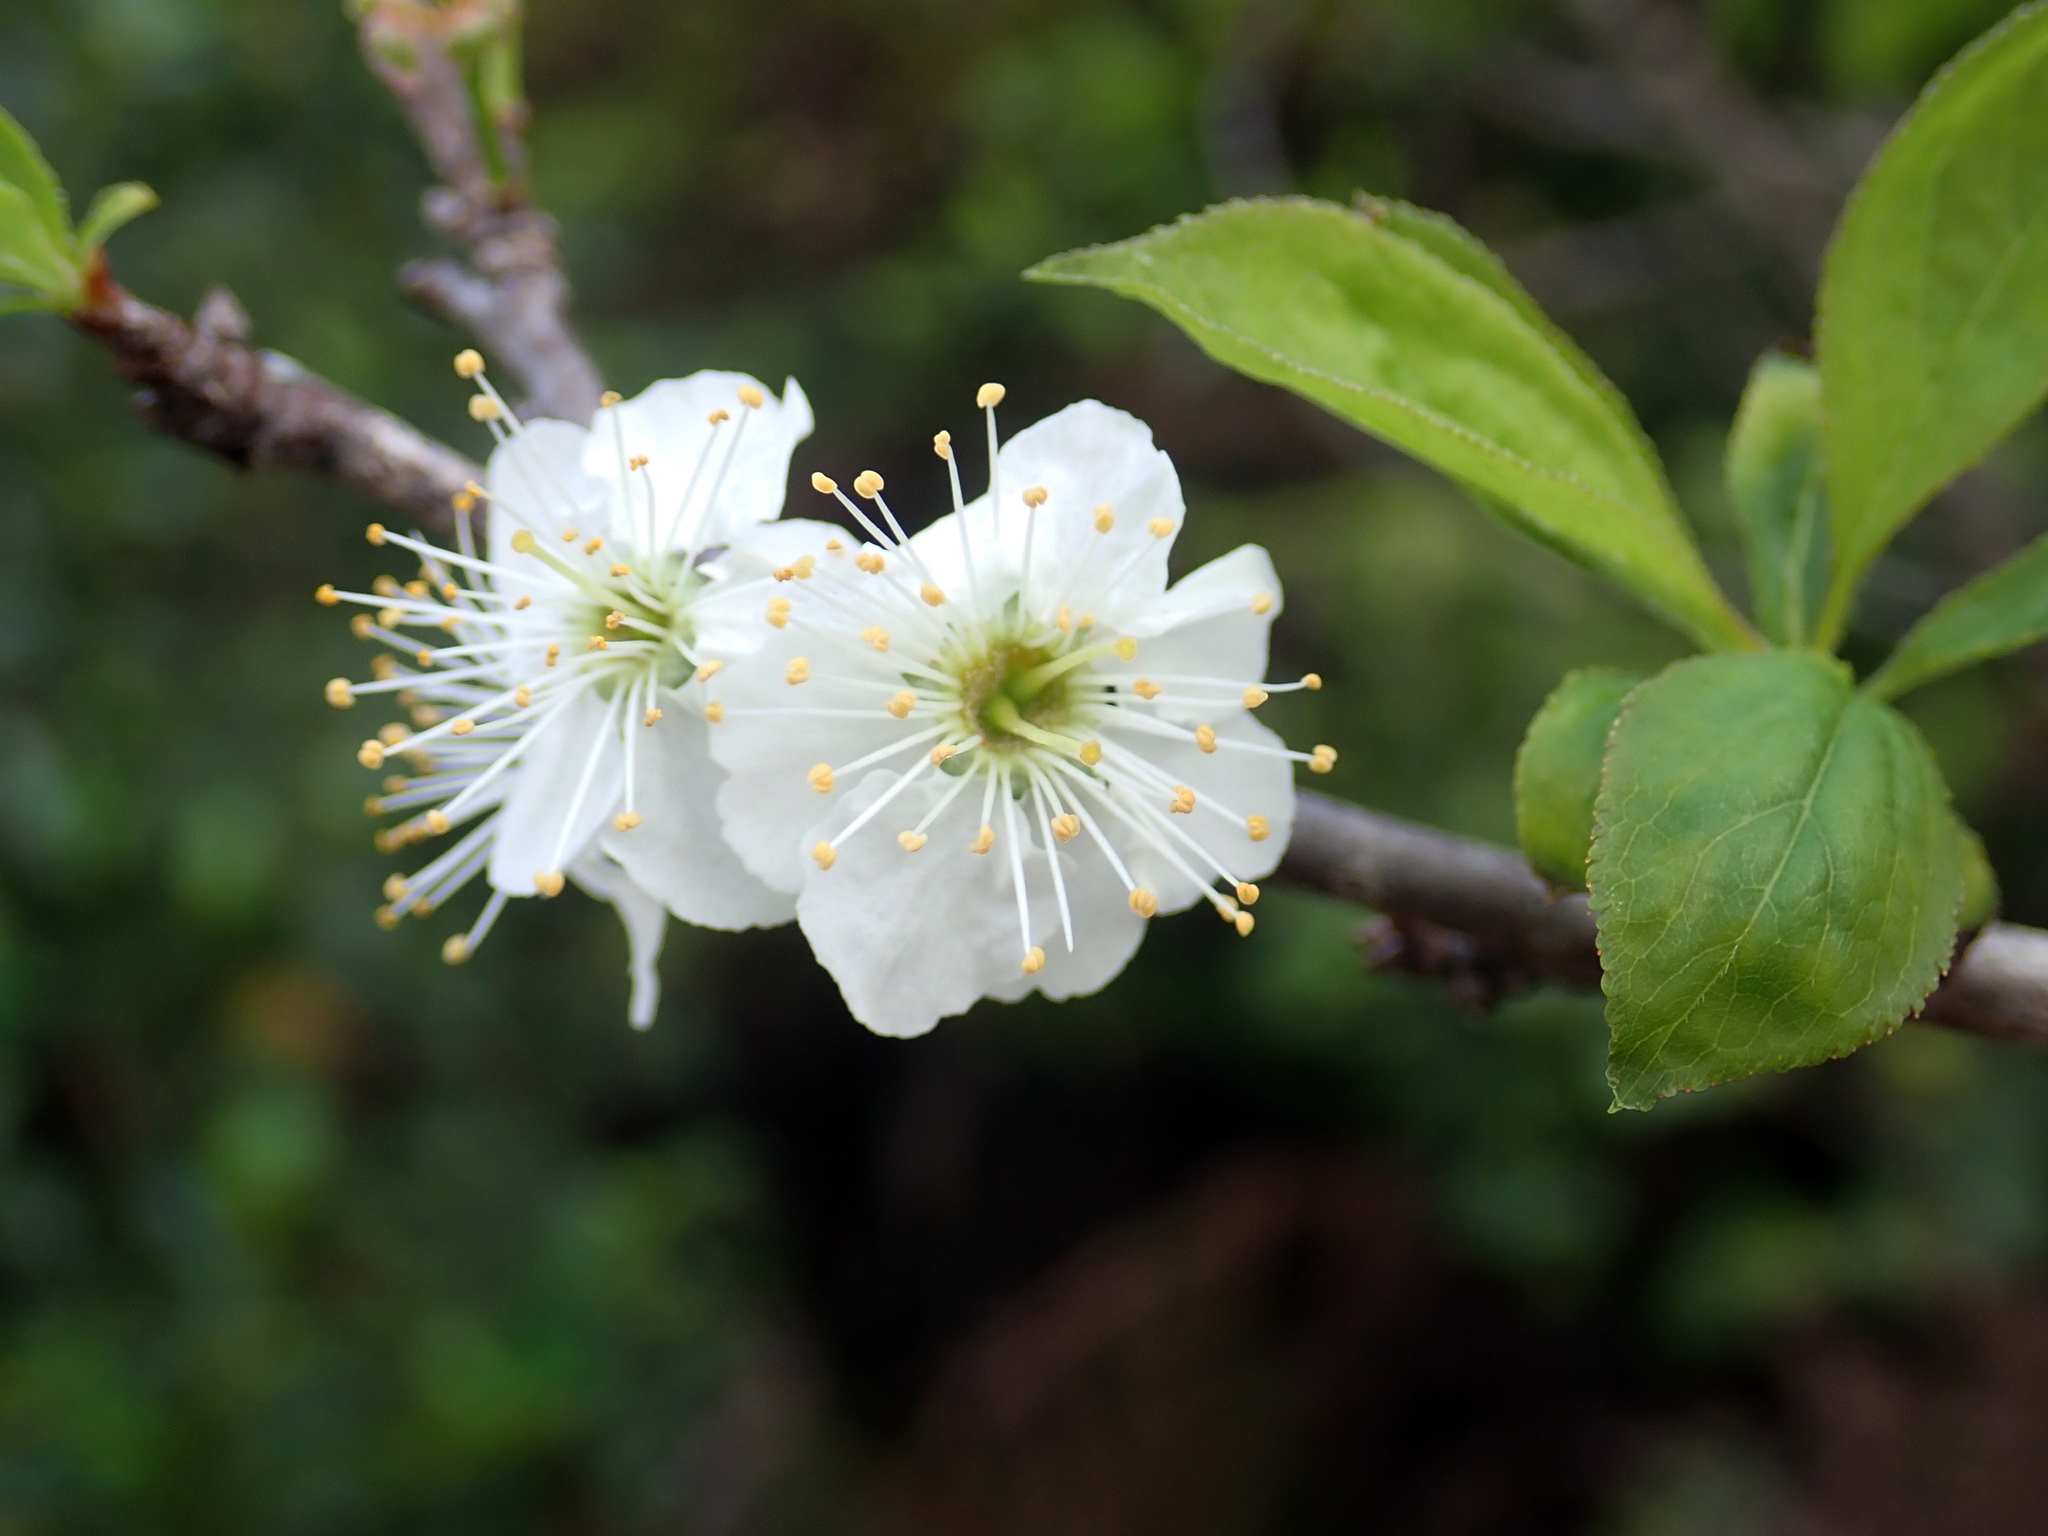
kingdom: Plantae
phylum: Tracheophyta
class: Magnoliopsida
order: Rosales
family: Rosaceae
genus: Prunus
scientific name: Prunus domestica
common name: Wild plum
